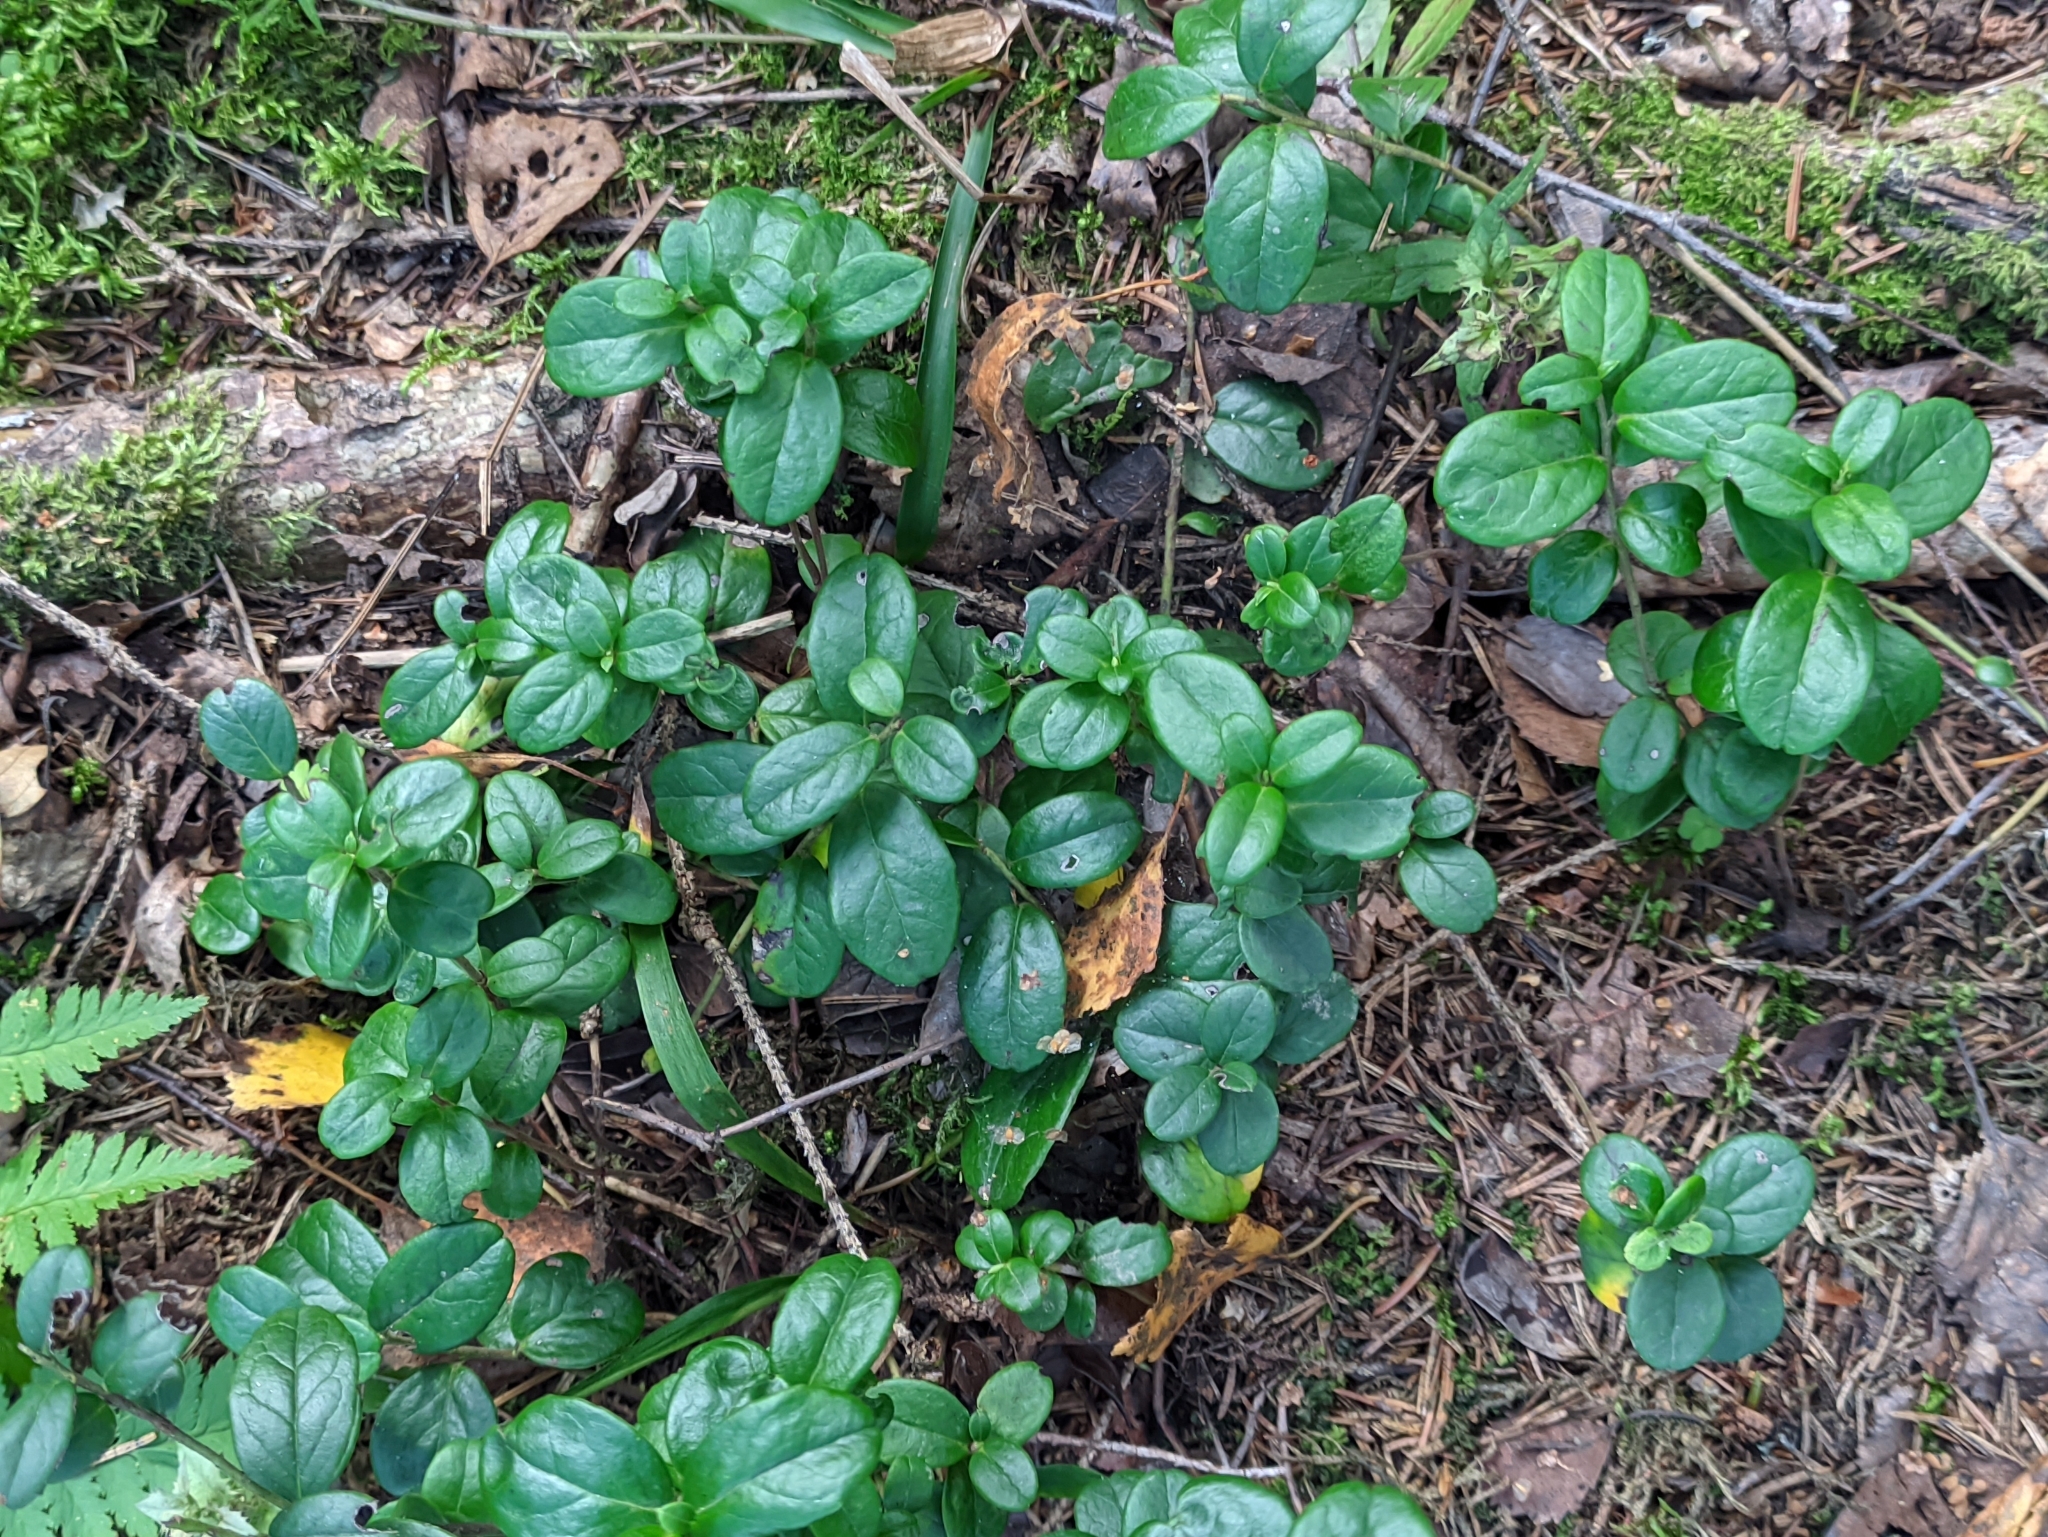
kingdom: Plantae
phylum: Tracheophyta
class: Magnoliopsida
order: Ericales
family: Ericaceae
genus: Vaccinium
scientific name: Vaccinium vitis-idaea
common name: Cowberry
